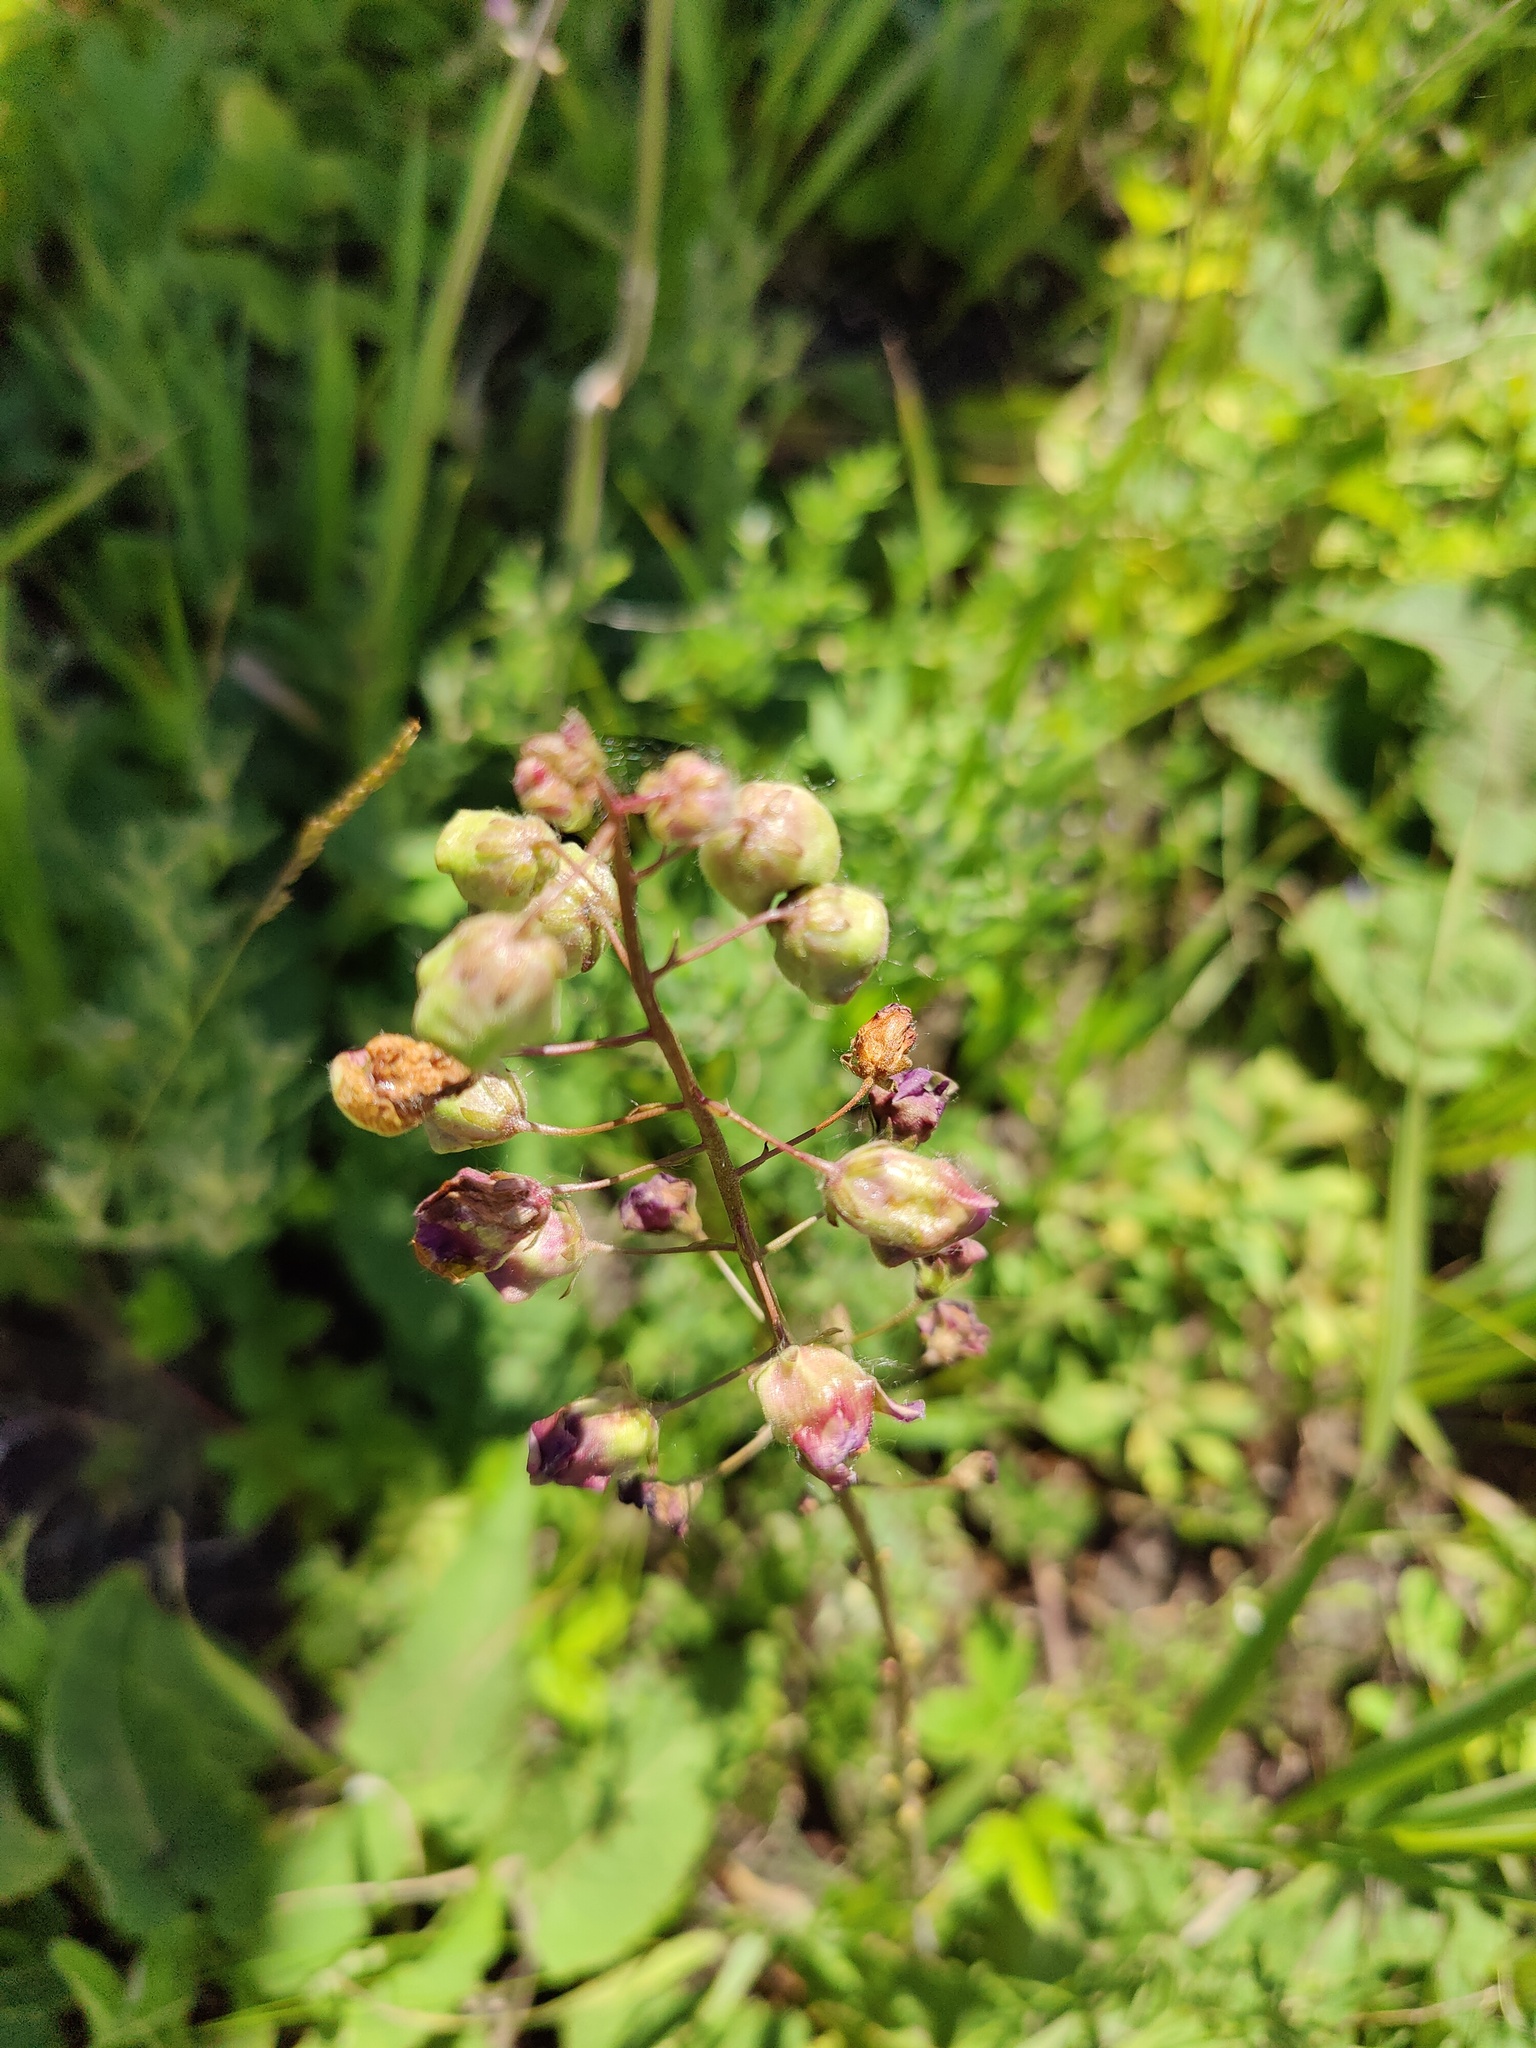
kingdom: Plantae
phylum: Tracheophyta
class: Magnoliopsida
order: Lamiales
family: Scrophulariaceae
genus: Verbascum
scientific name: Verbascum phoeniceum
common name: Purple mullein
